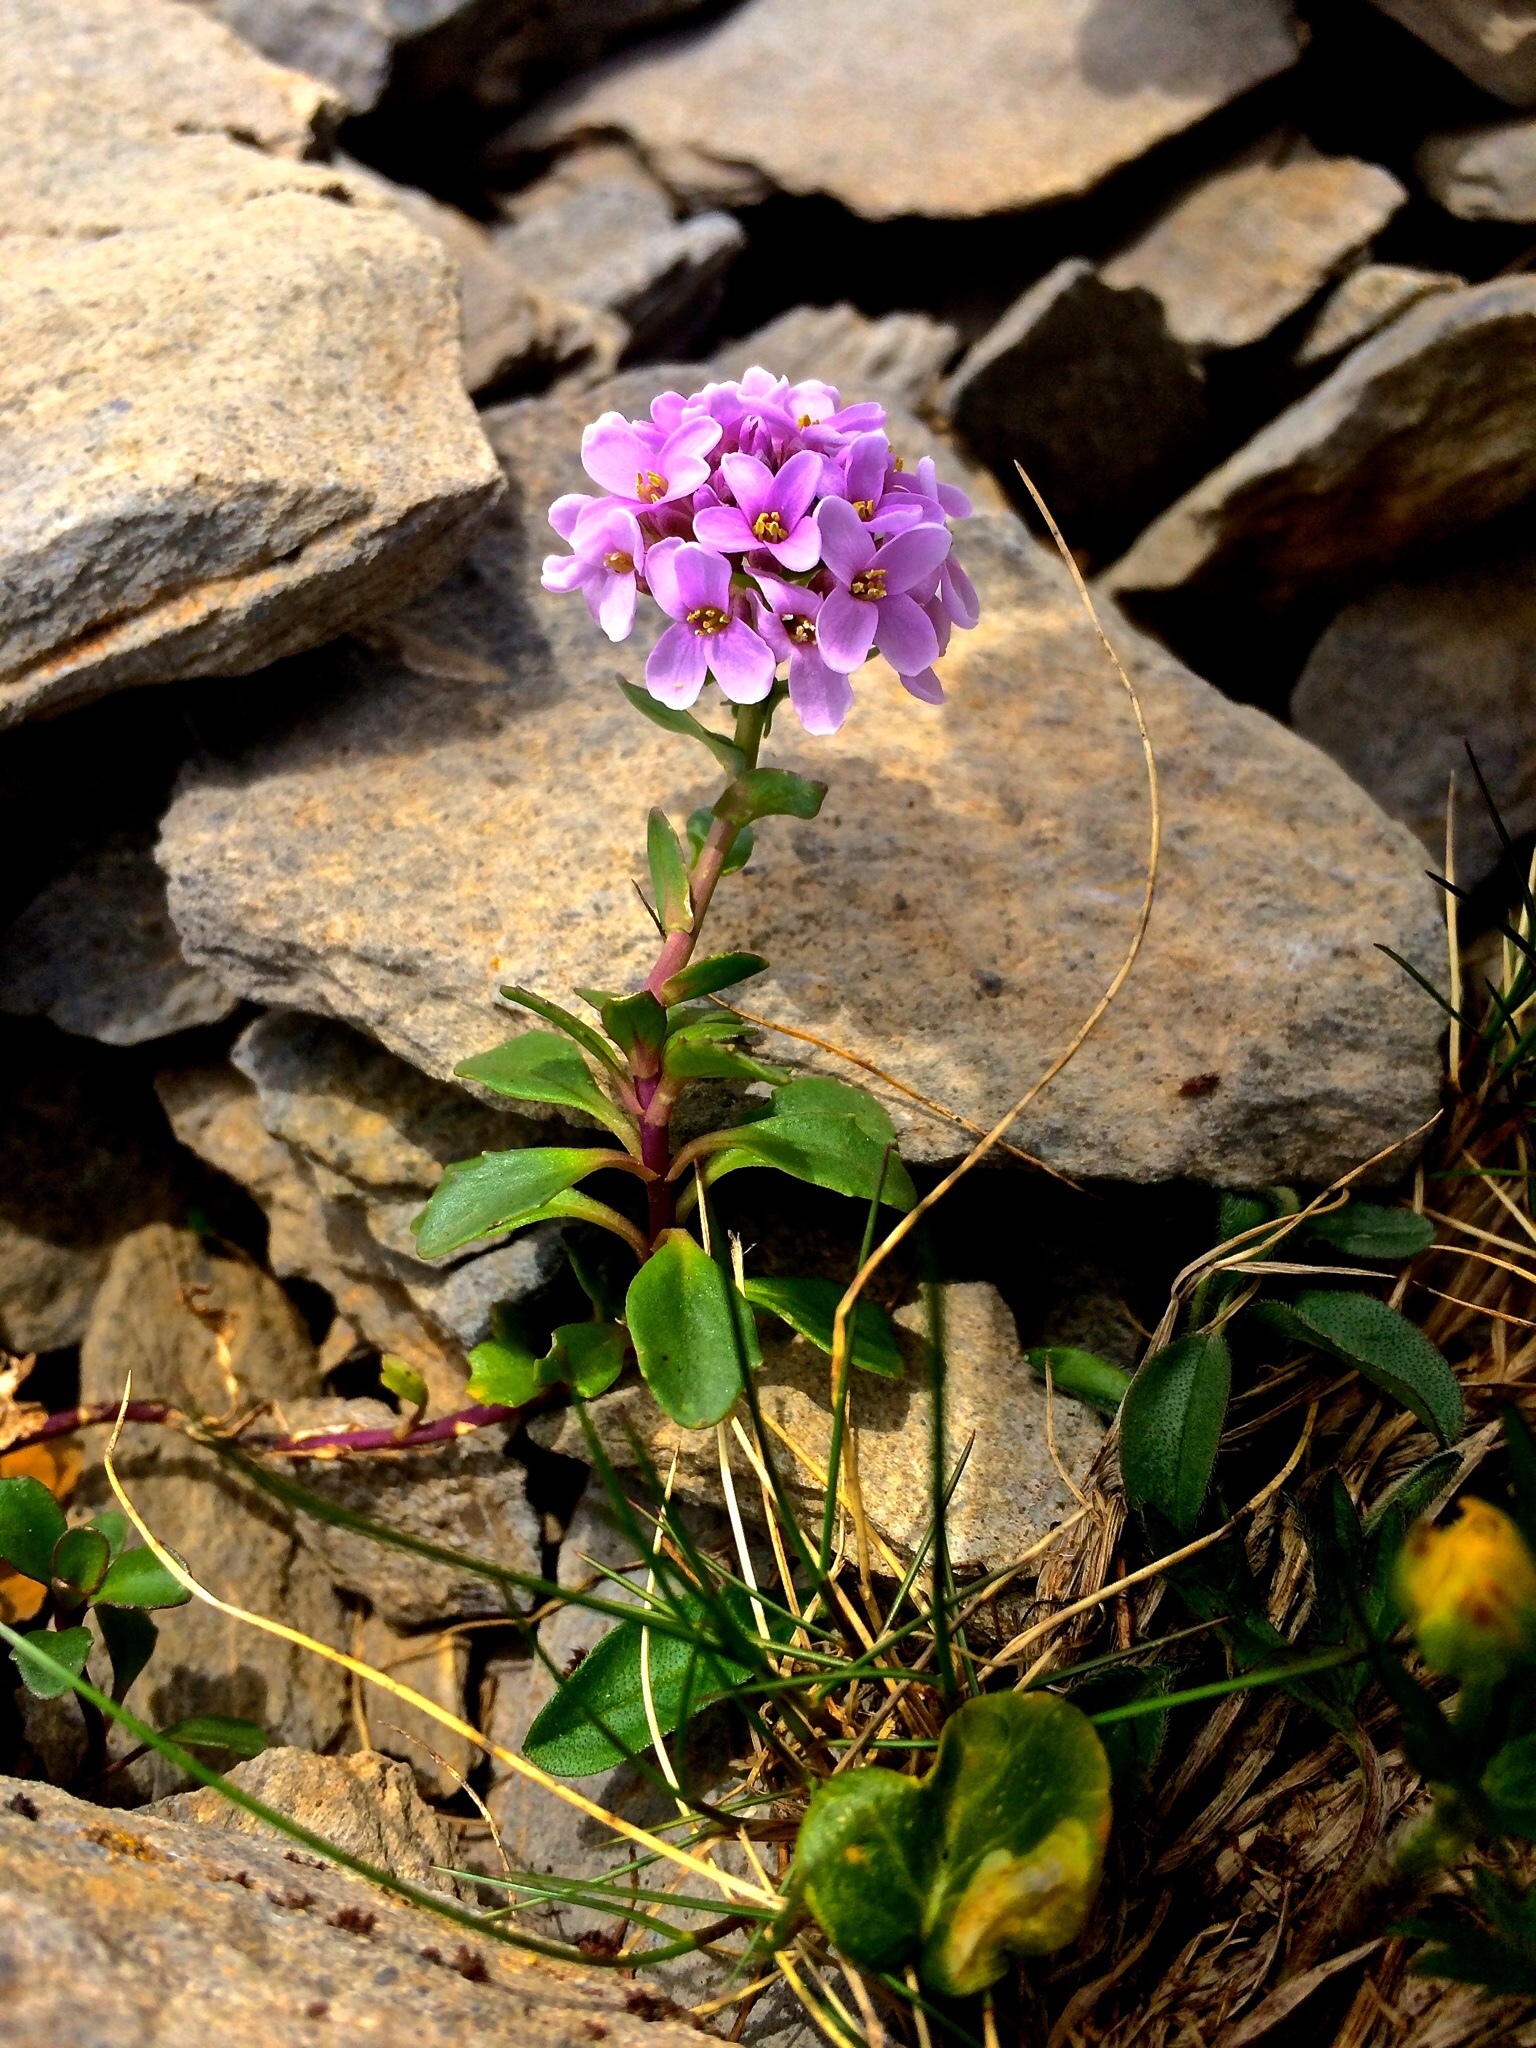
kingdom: Plantae
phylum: Tracheophyta
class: Magnoliopsida
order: Brassicales
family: Brassicaceae
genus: Noccaea
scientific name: Noccaea rotundifolia
